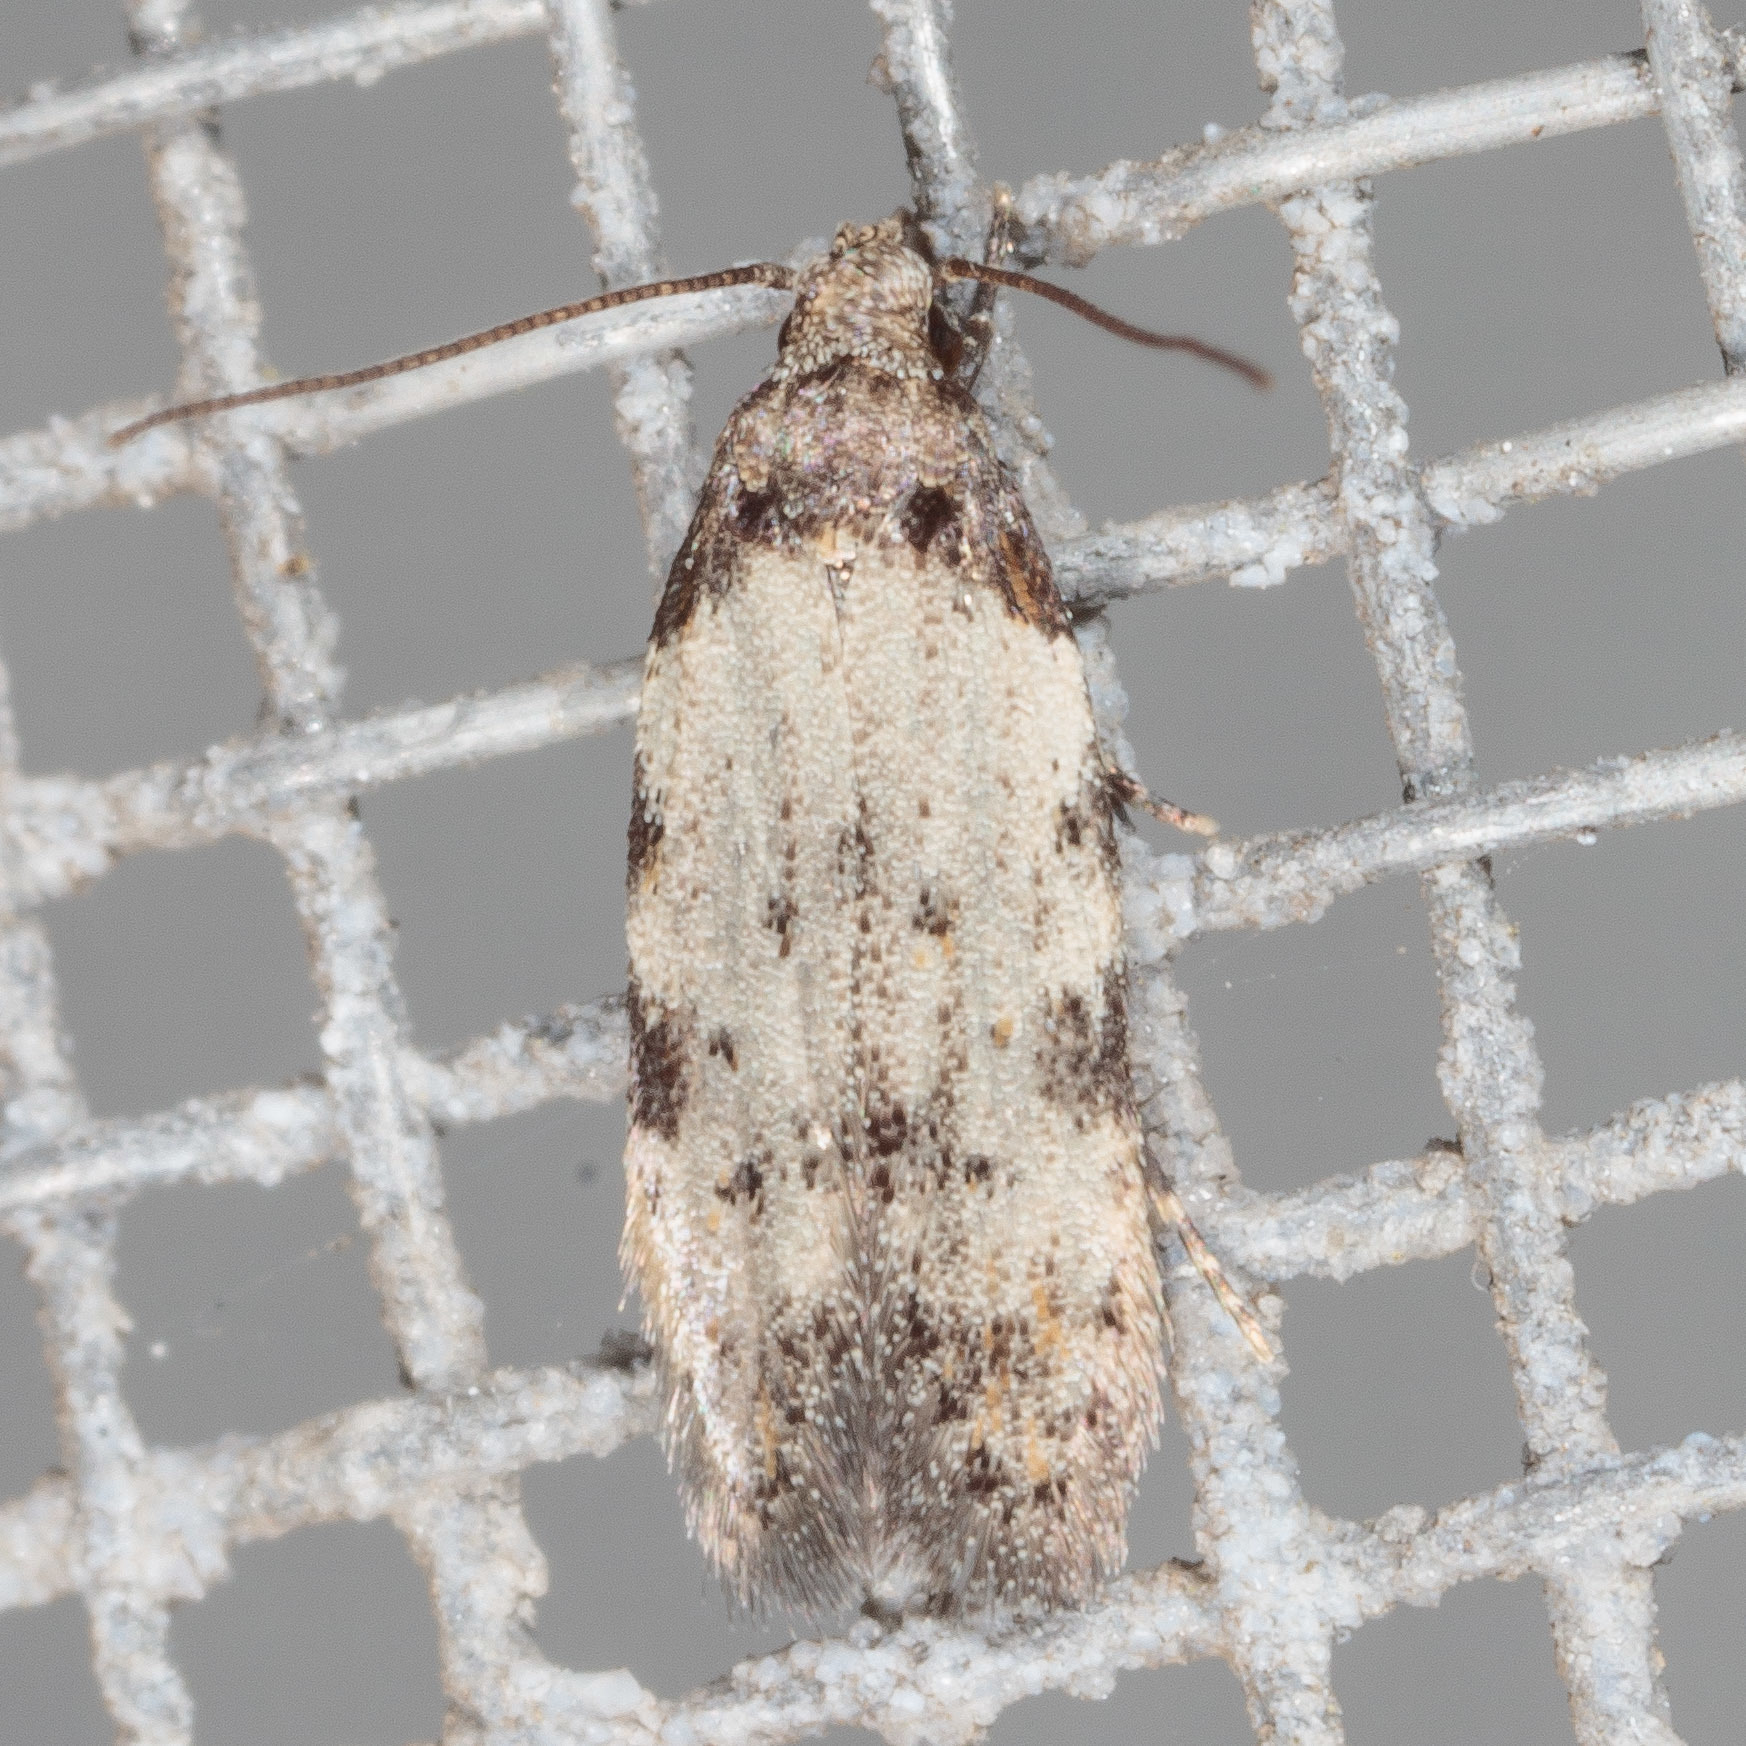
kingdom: Animalia
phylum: Arthropoda
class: Insecta
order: Lepidoptera
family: Autostichidae
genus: Taygete
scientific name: Taygete attributella
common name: Triangle-marked twirler moth
